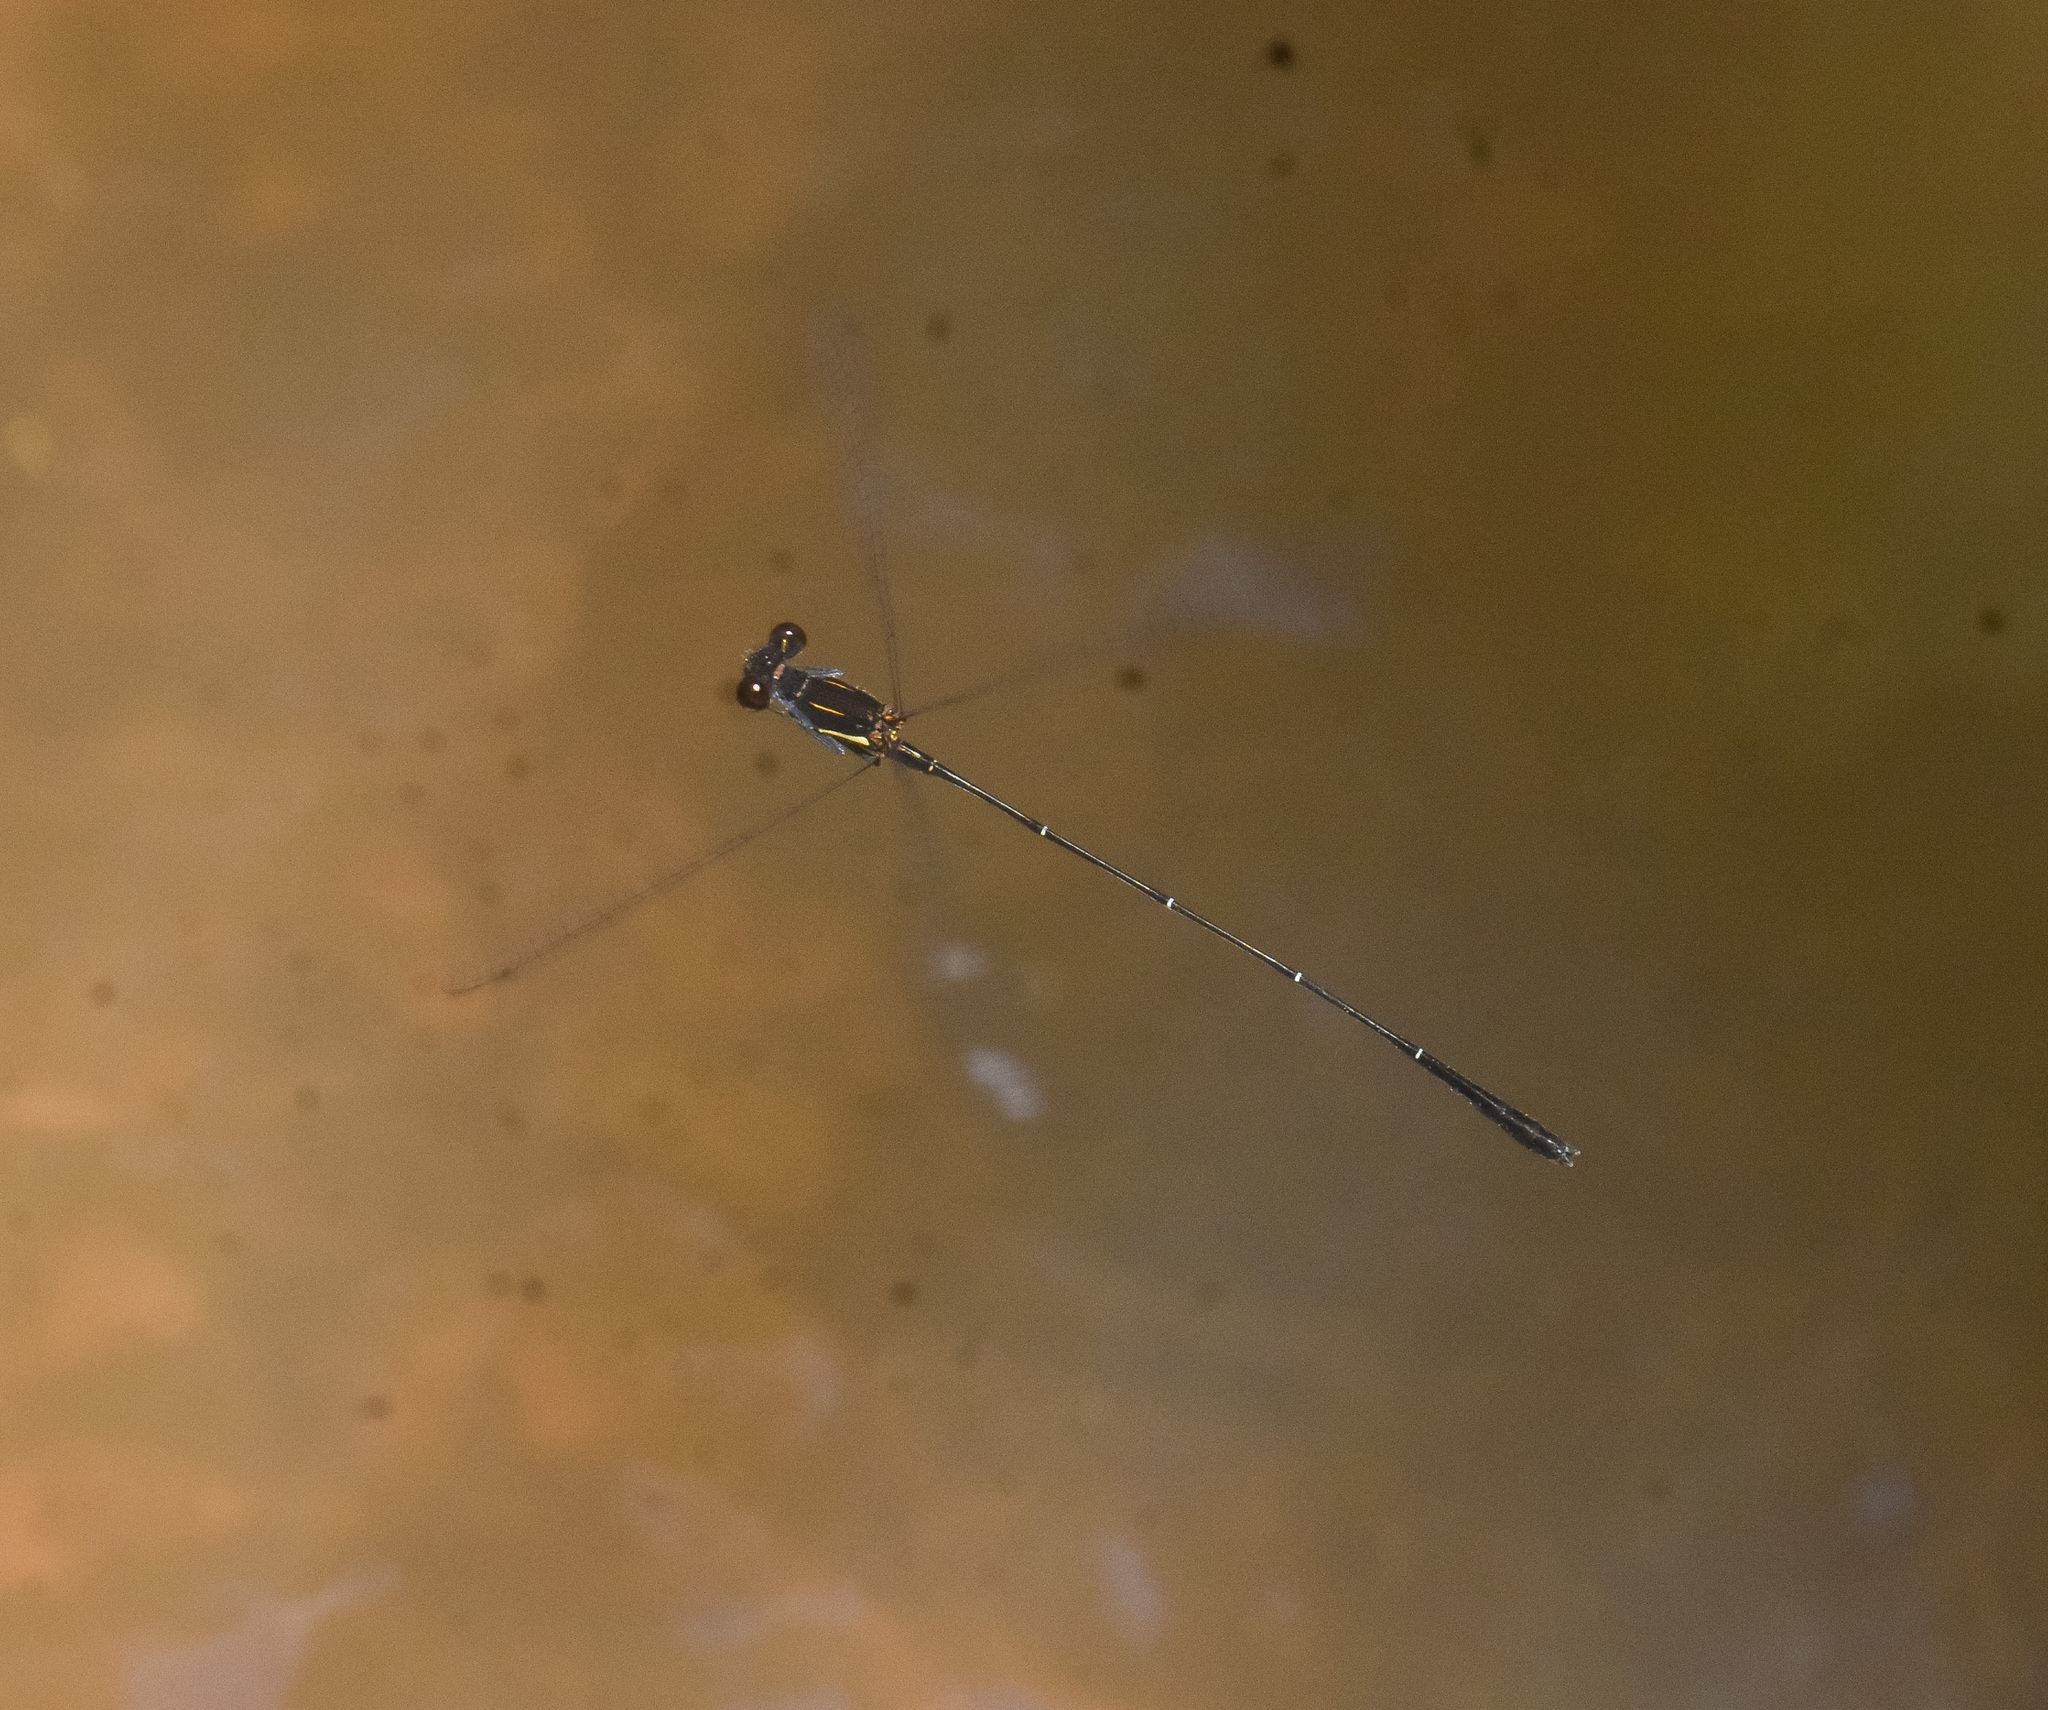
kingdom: Animalia
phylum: Arthropoda
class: Insecta
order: Odonata
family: Platycnemididae
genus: Prodasineura
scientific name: Prodasineura verticalis
